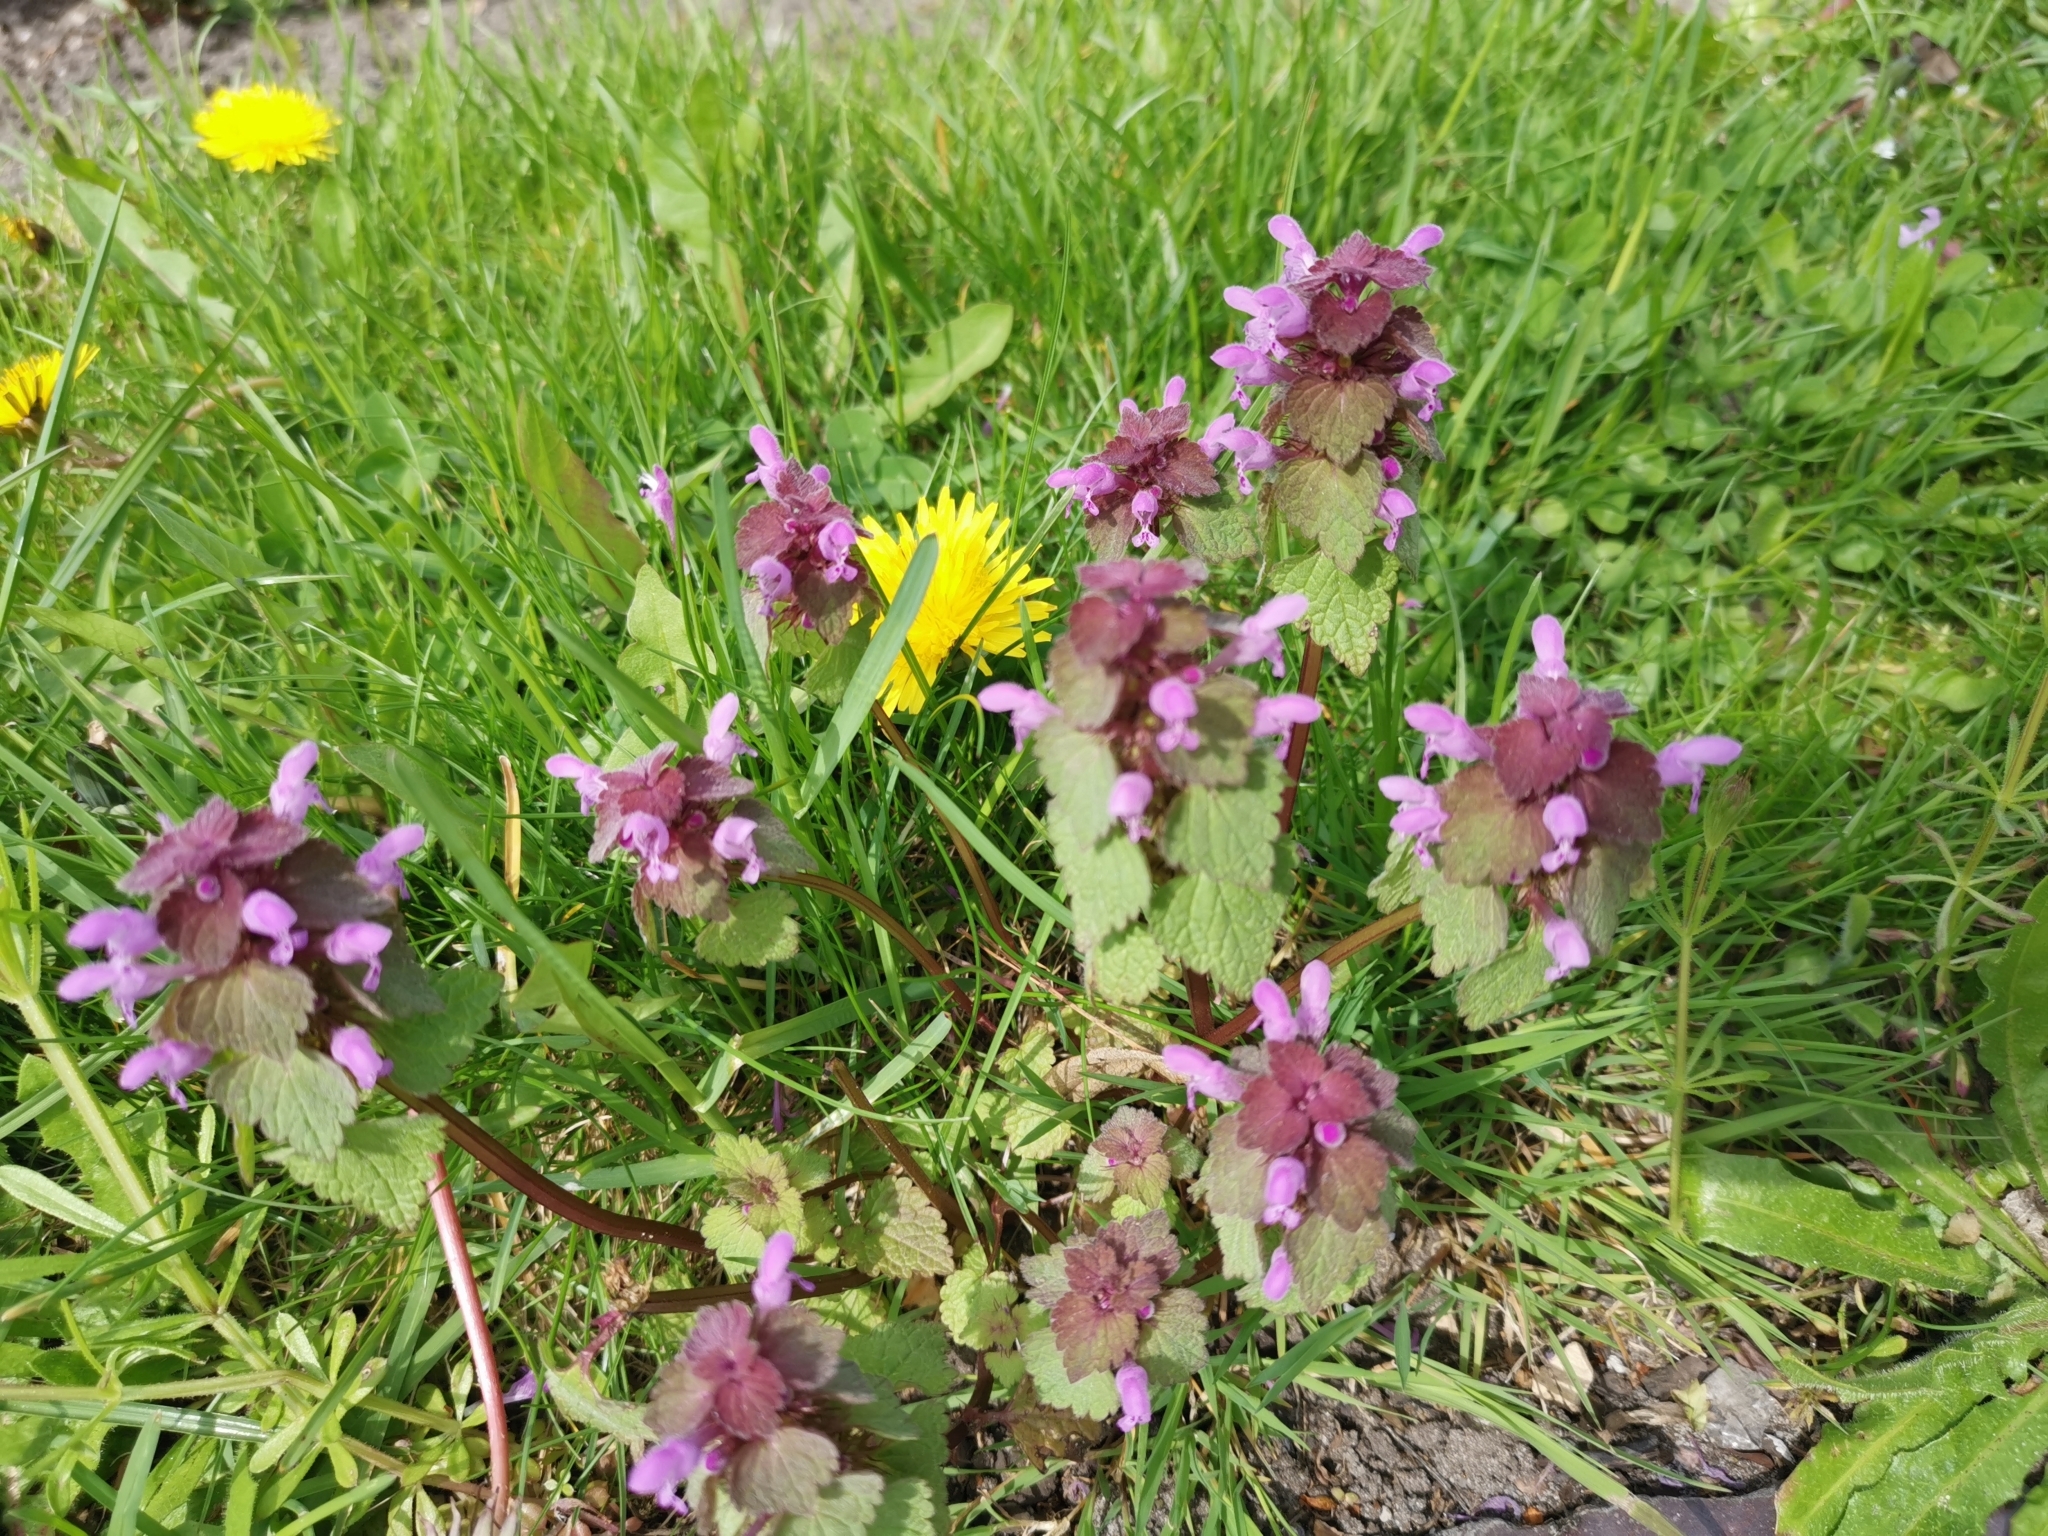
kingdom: Plantae
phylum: Tracheophyta
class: Magnoliopsida
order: Lamiales
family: Lamiaceae
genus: Lamium
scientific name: Lamium purpureum
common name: Red dead-nettle
